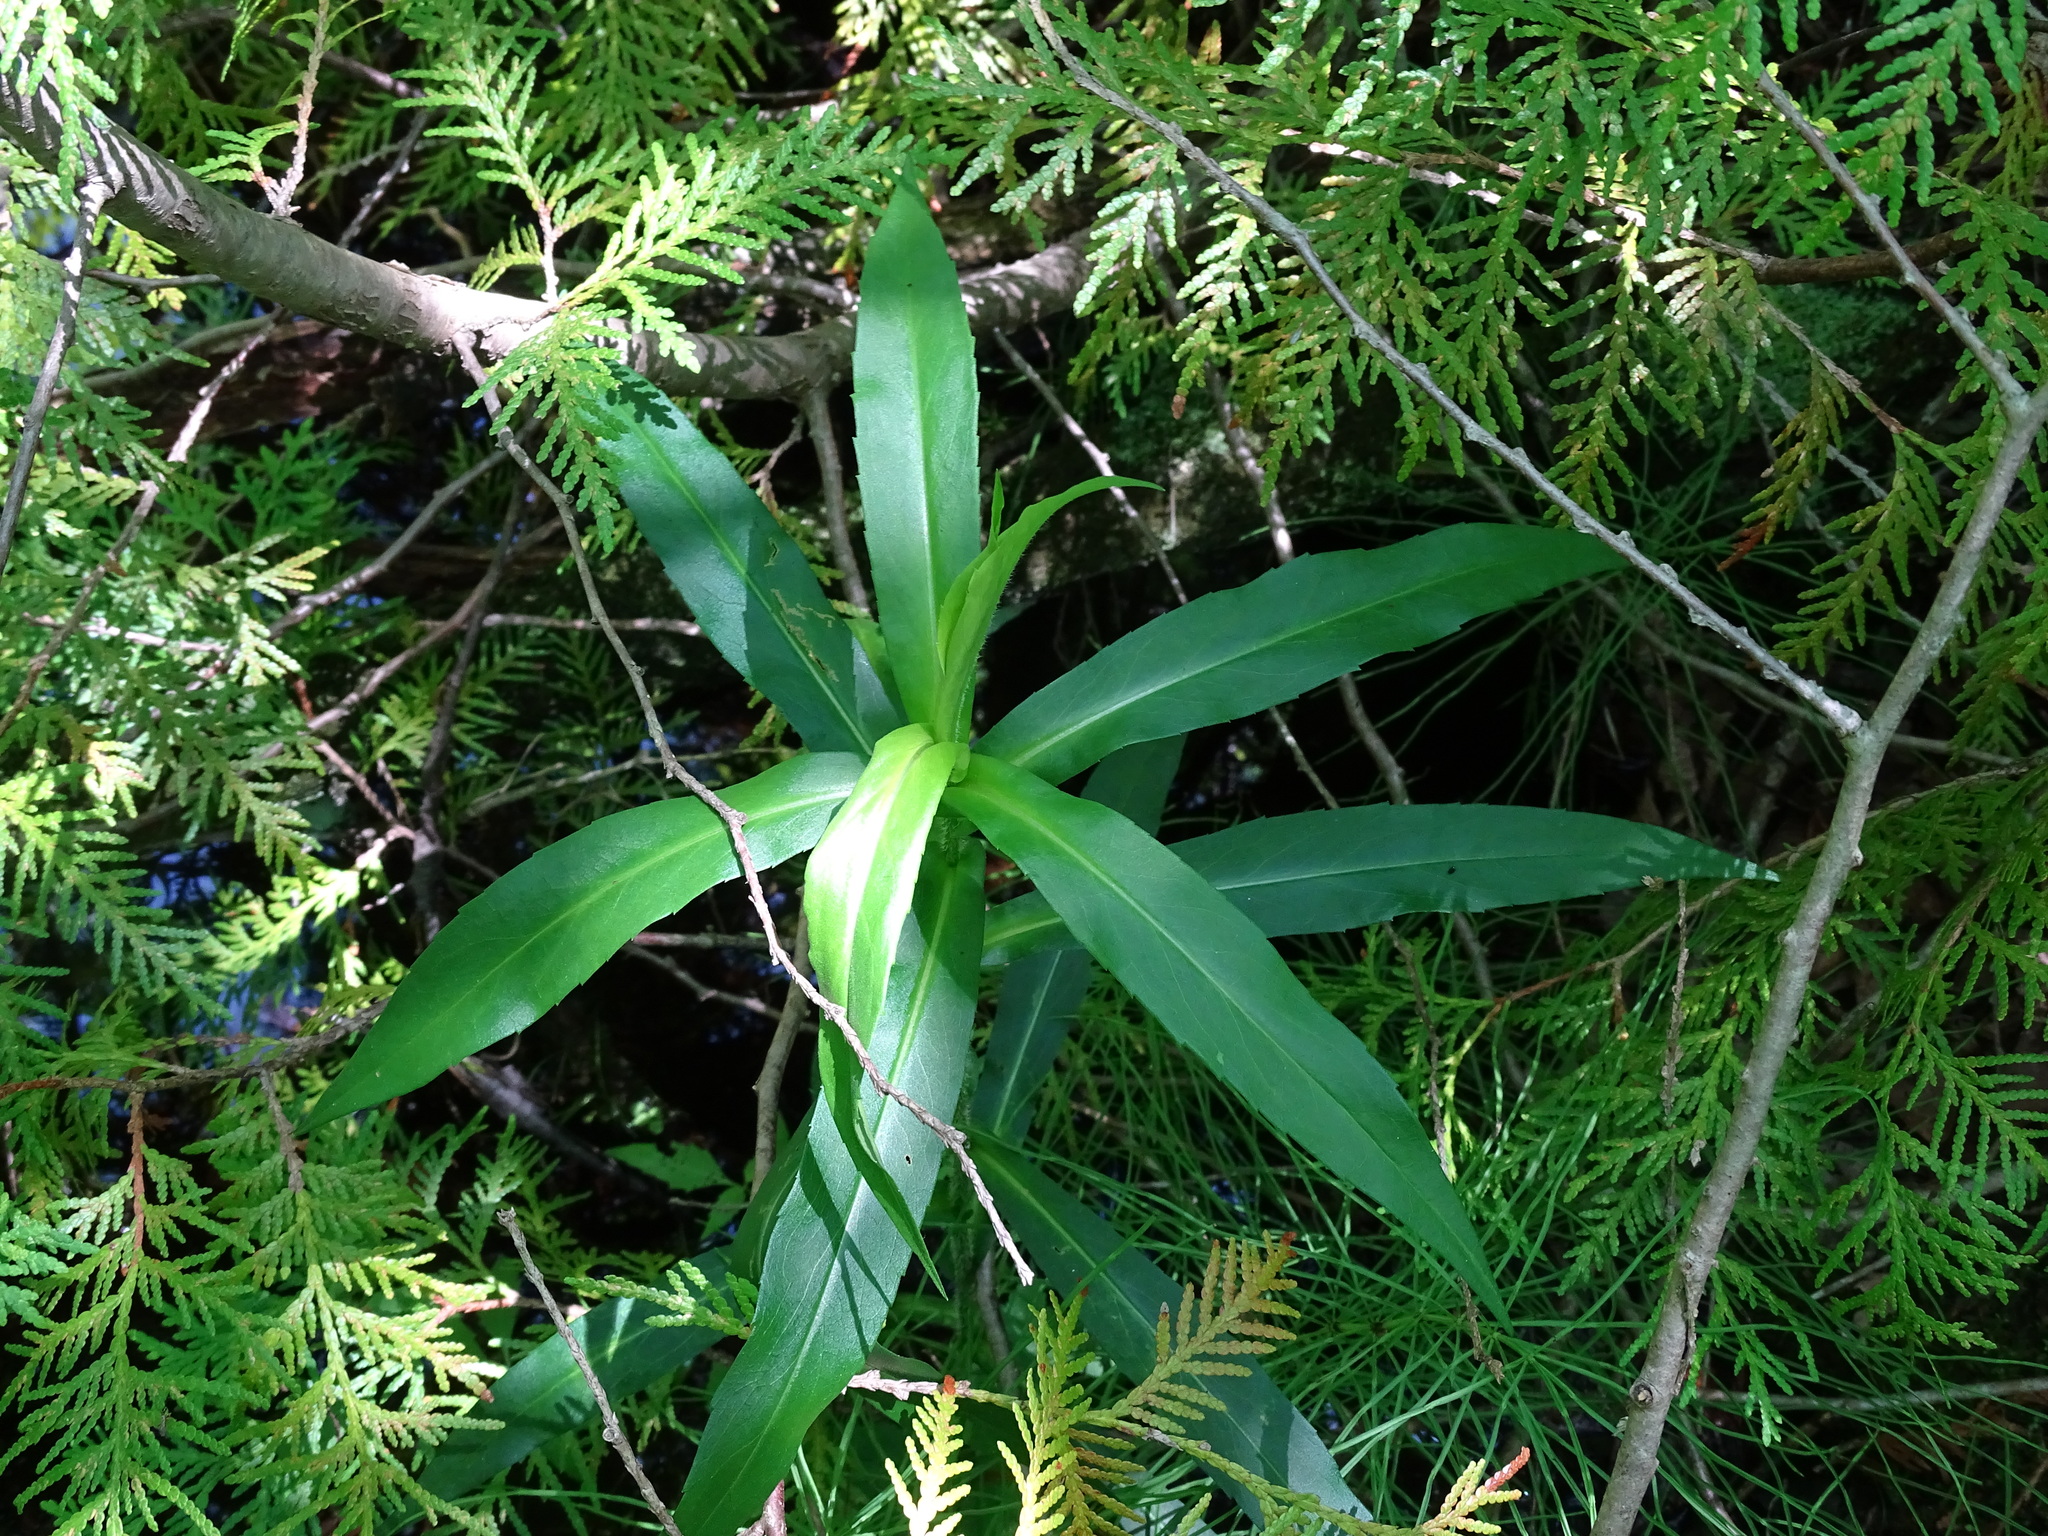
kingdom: Plantae
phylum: Tracheophyta
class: Magnoliopsida
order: Asterales
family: Asteraceae
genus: Symphyotrichum
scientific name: Symphyotrichum puniceum
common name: Bog aster
